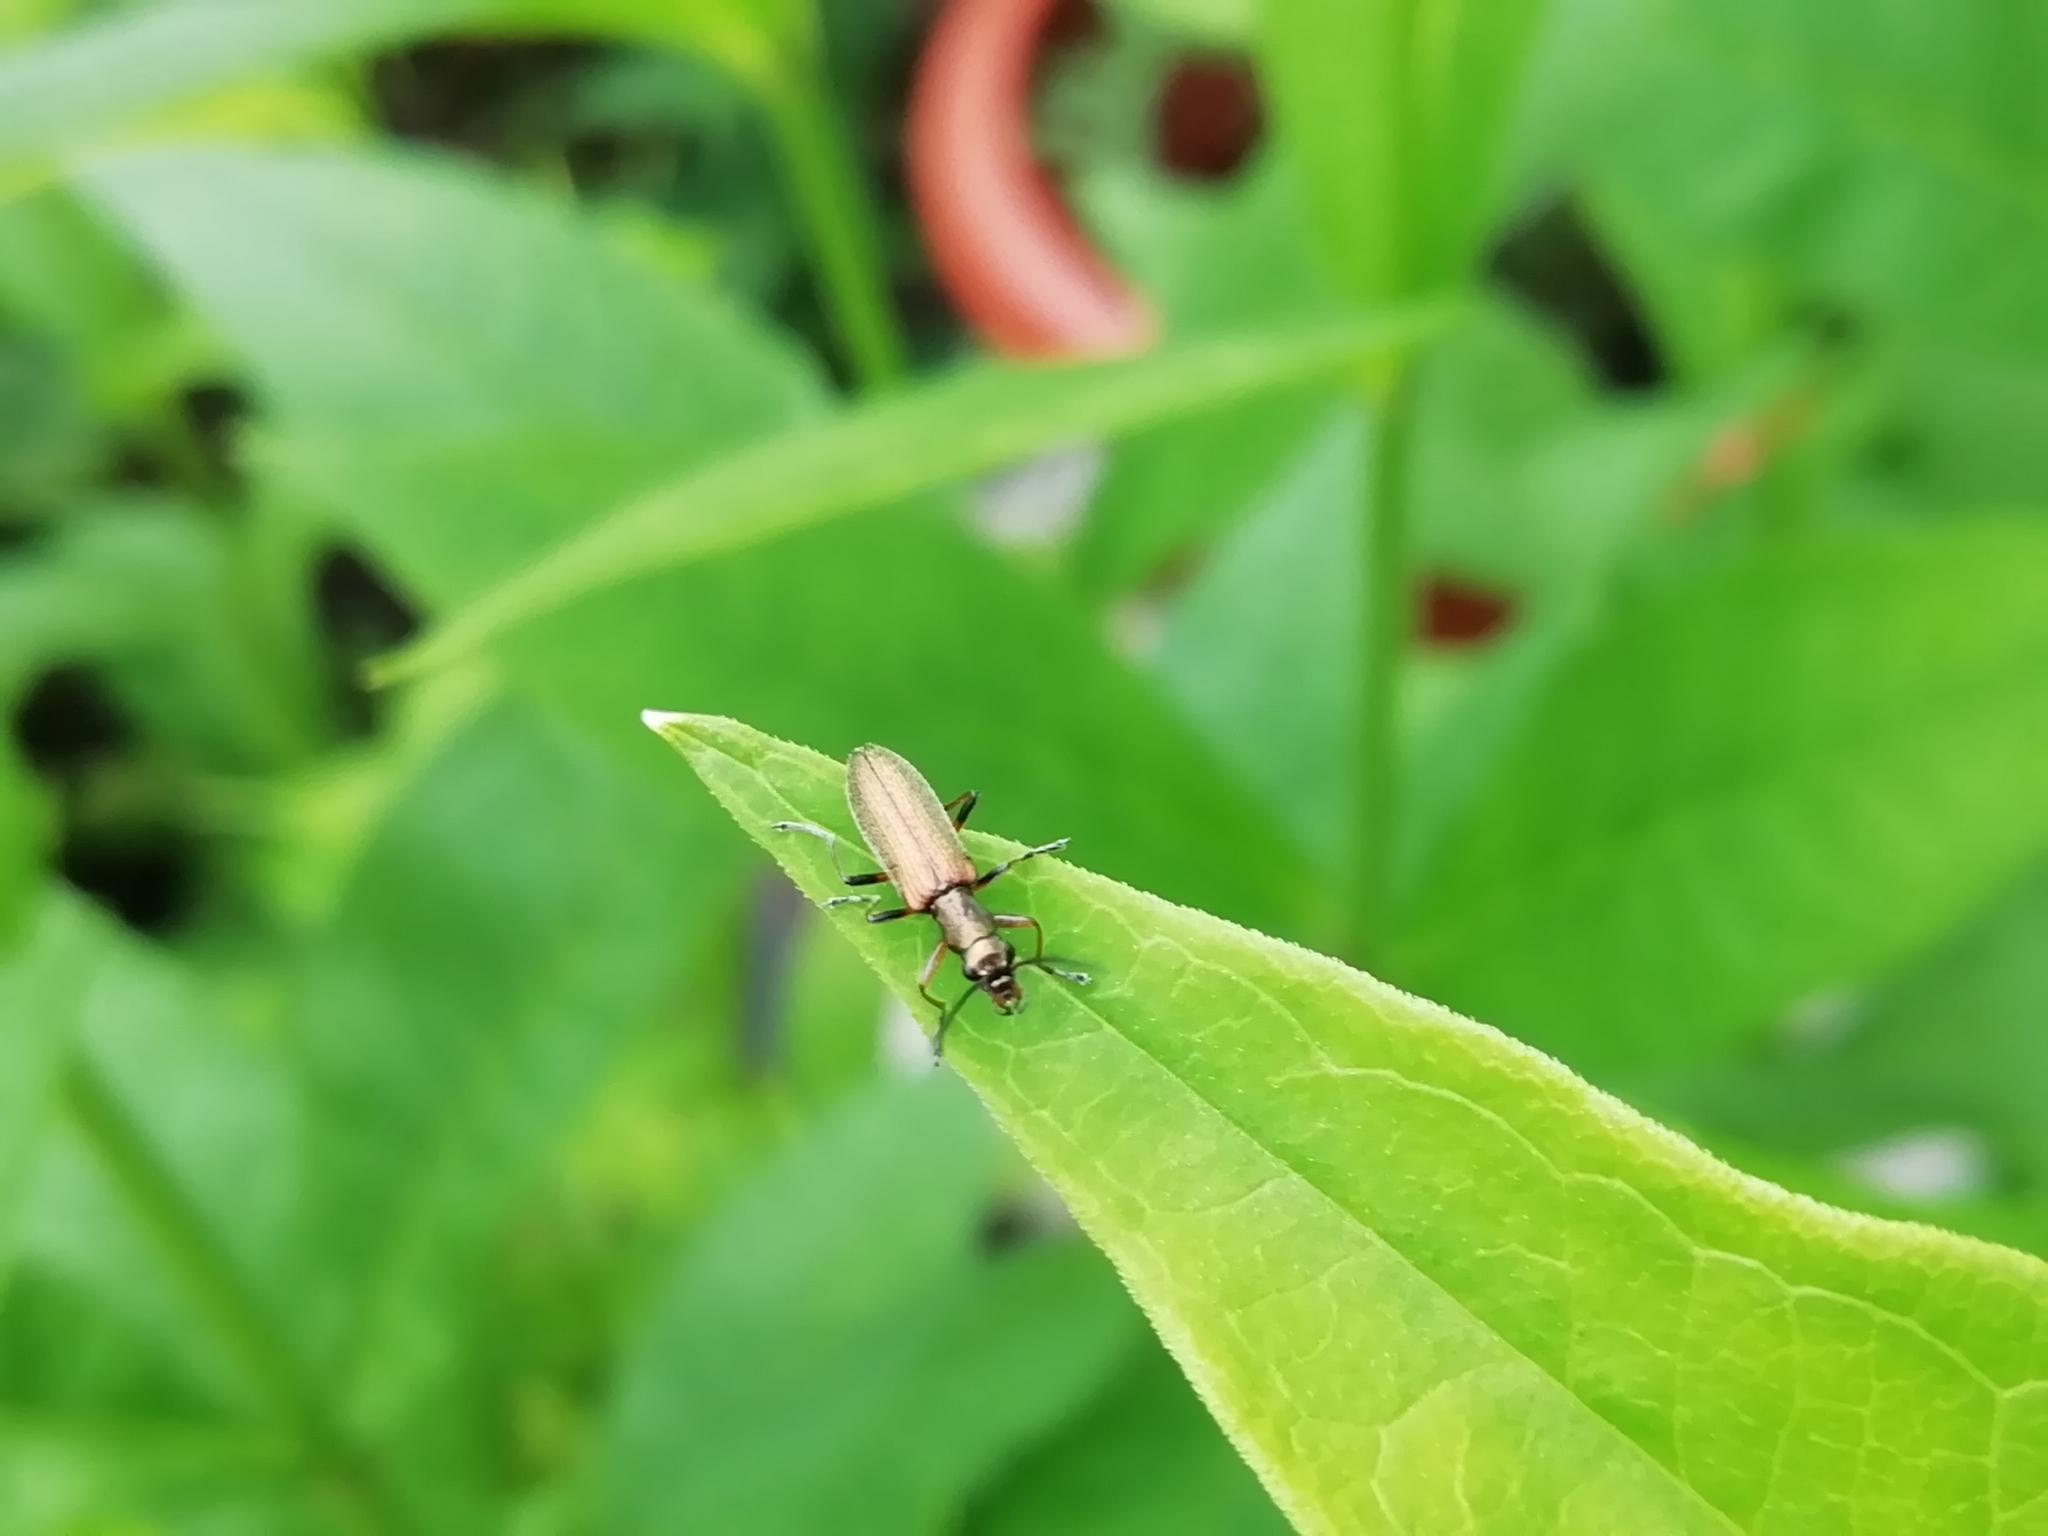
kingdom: Animalia
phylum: Arthropoda
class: Insecta
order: Coleoptera
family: Oedemeridae
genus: Chrysanthia
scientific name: Chrysanthia geniculata
